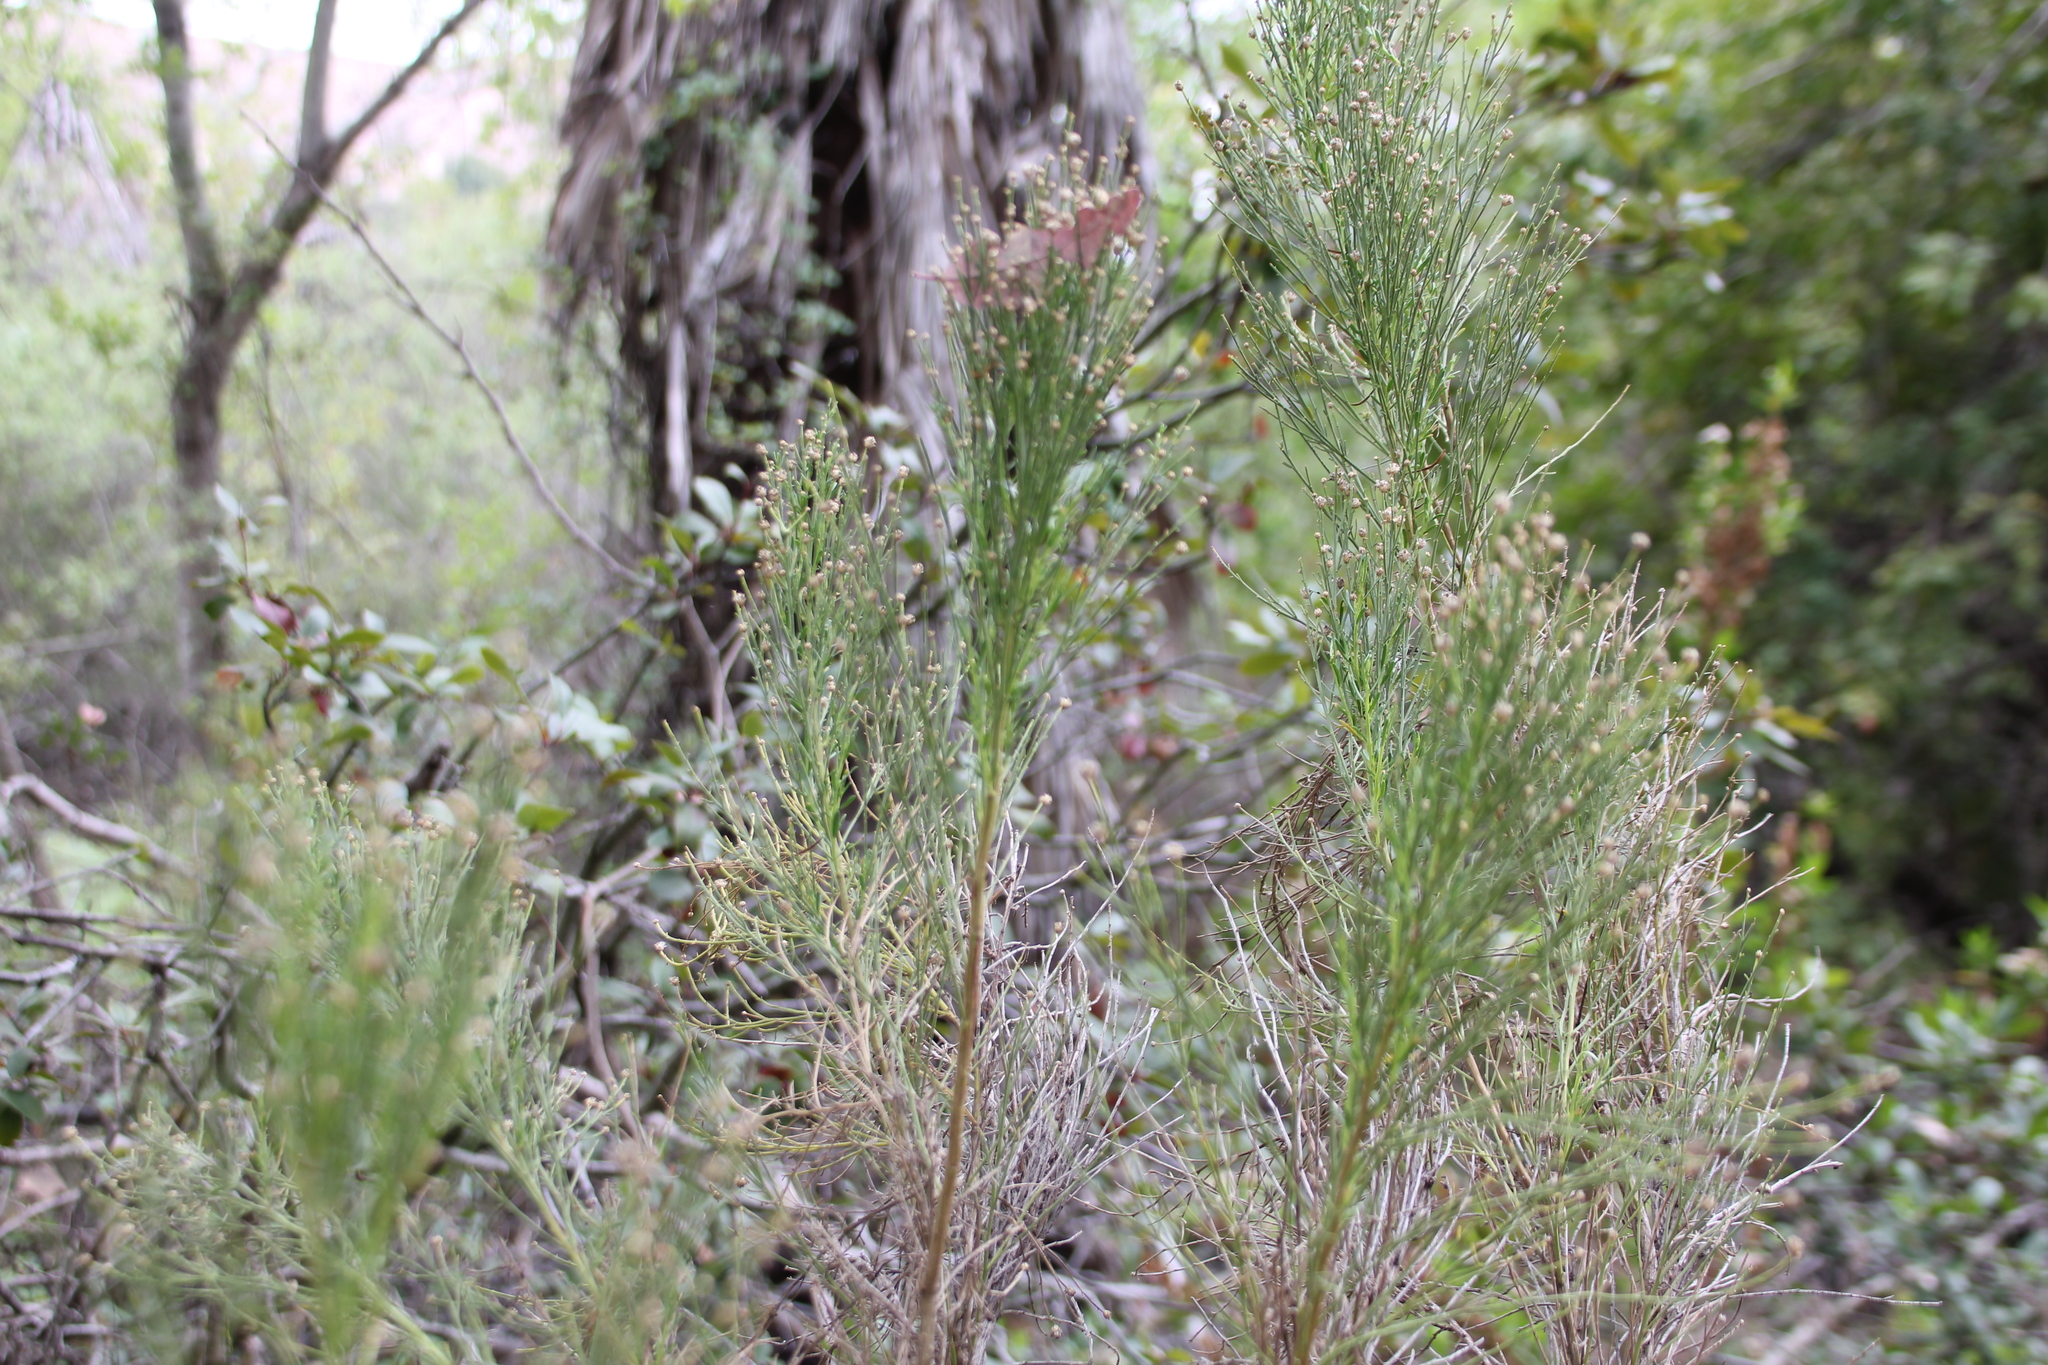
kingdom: Plantae
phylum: Tracheophyta
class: Magnoliopsida
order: Asterales
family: Asteraceae
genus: Baccharis
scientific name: Baccharis sarothroides
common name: Desert-broom
